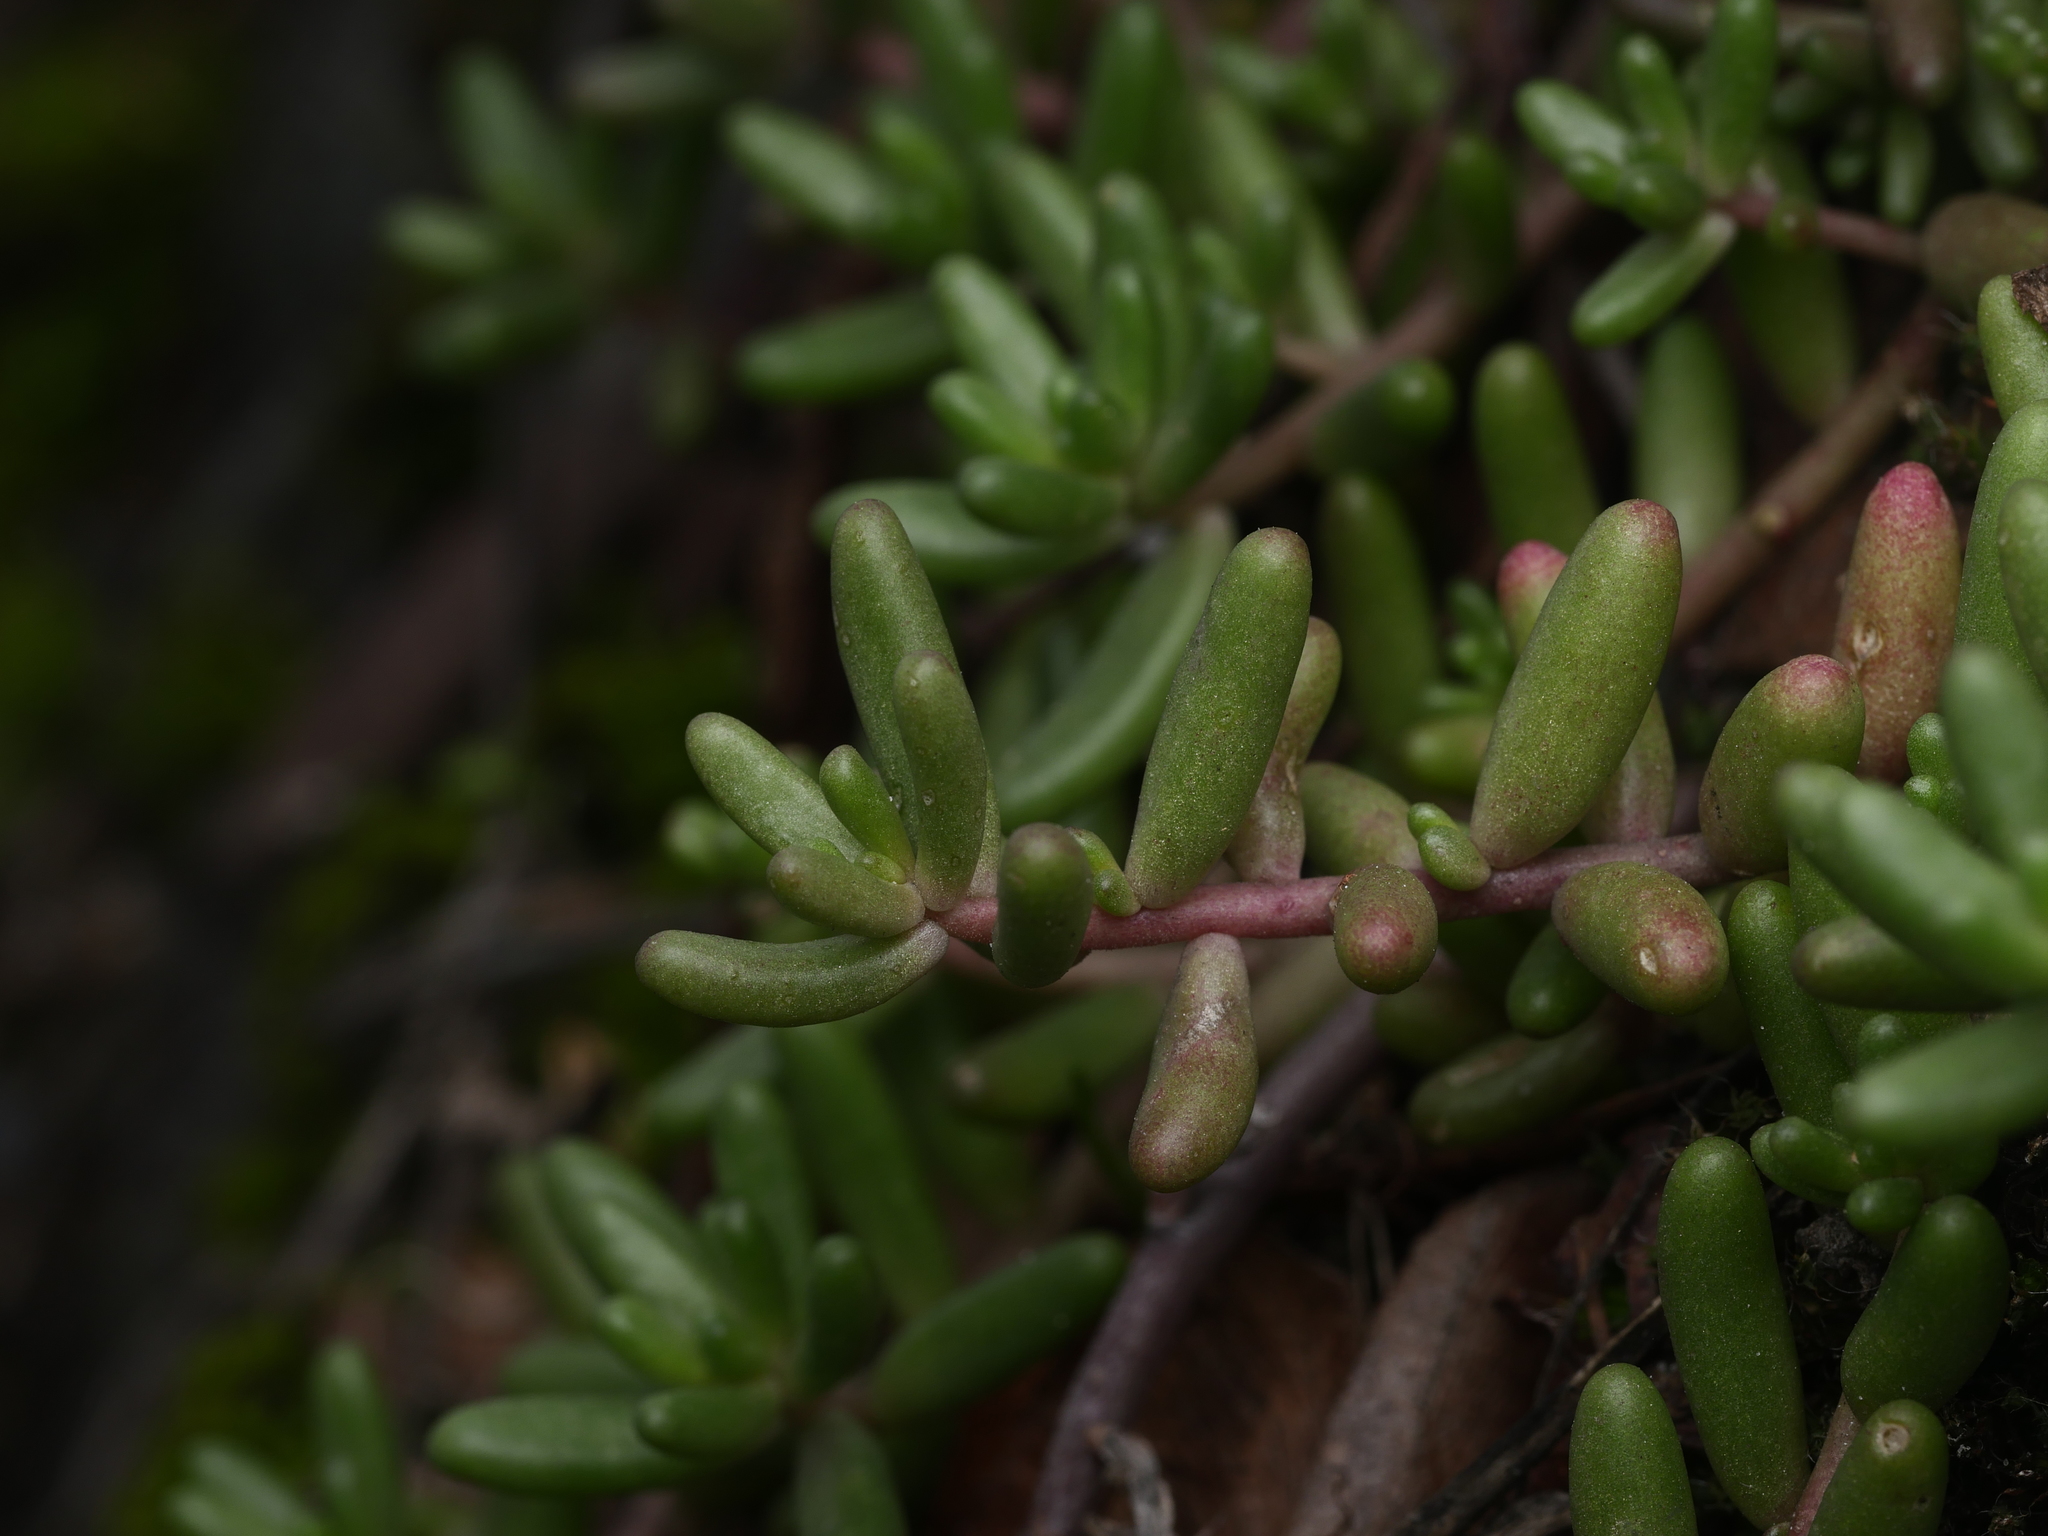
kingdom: Plantae
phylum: Tracheophyta
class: Magnoliopsida
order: Saxifragales
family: Crassulaceae
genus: Sedum
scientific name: Sedum album
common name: White stonecrop
